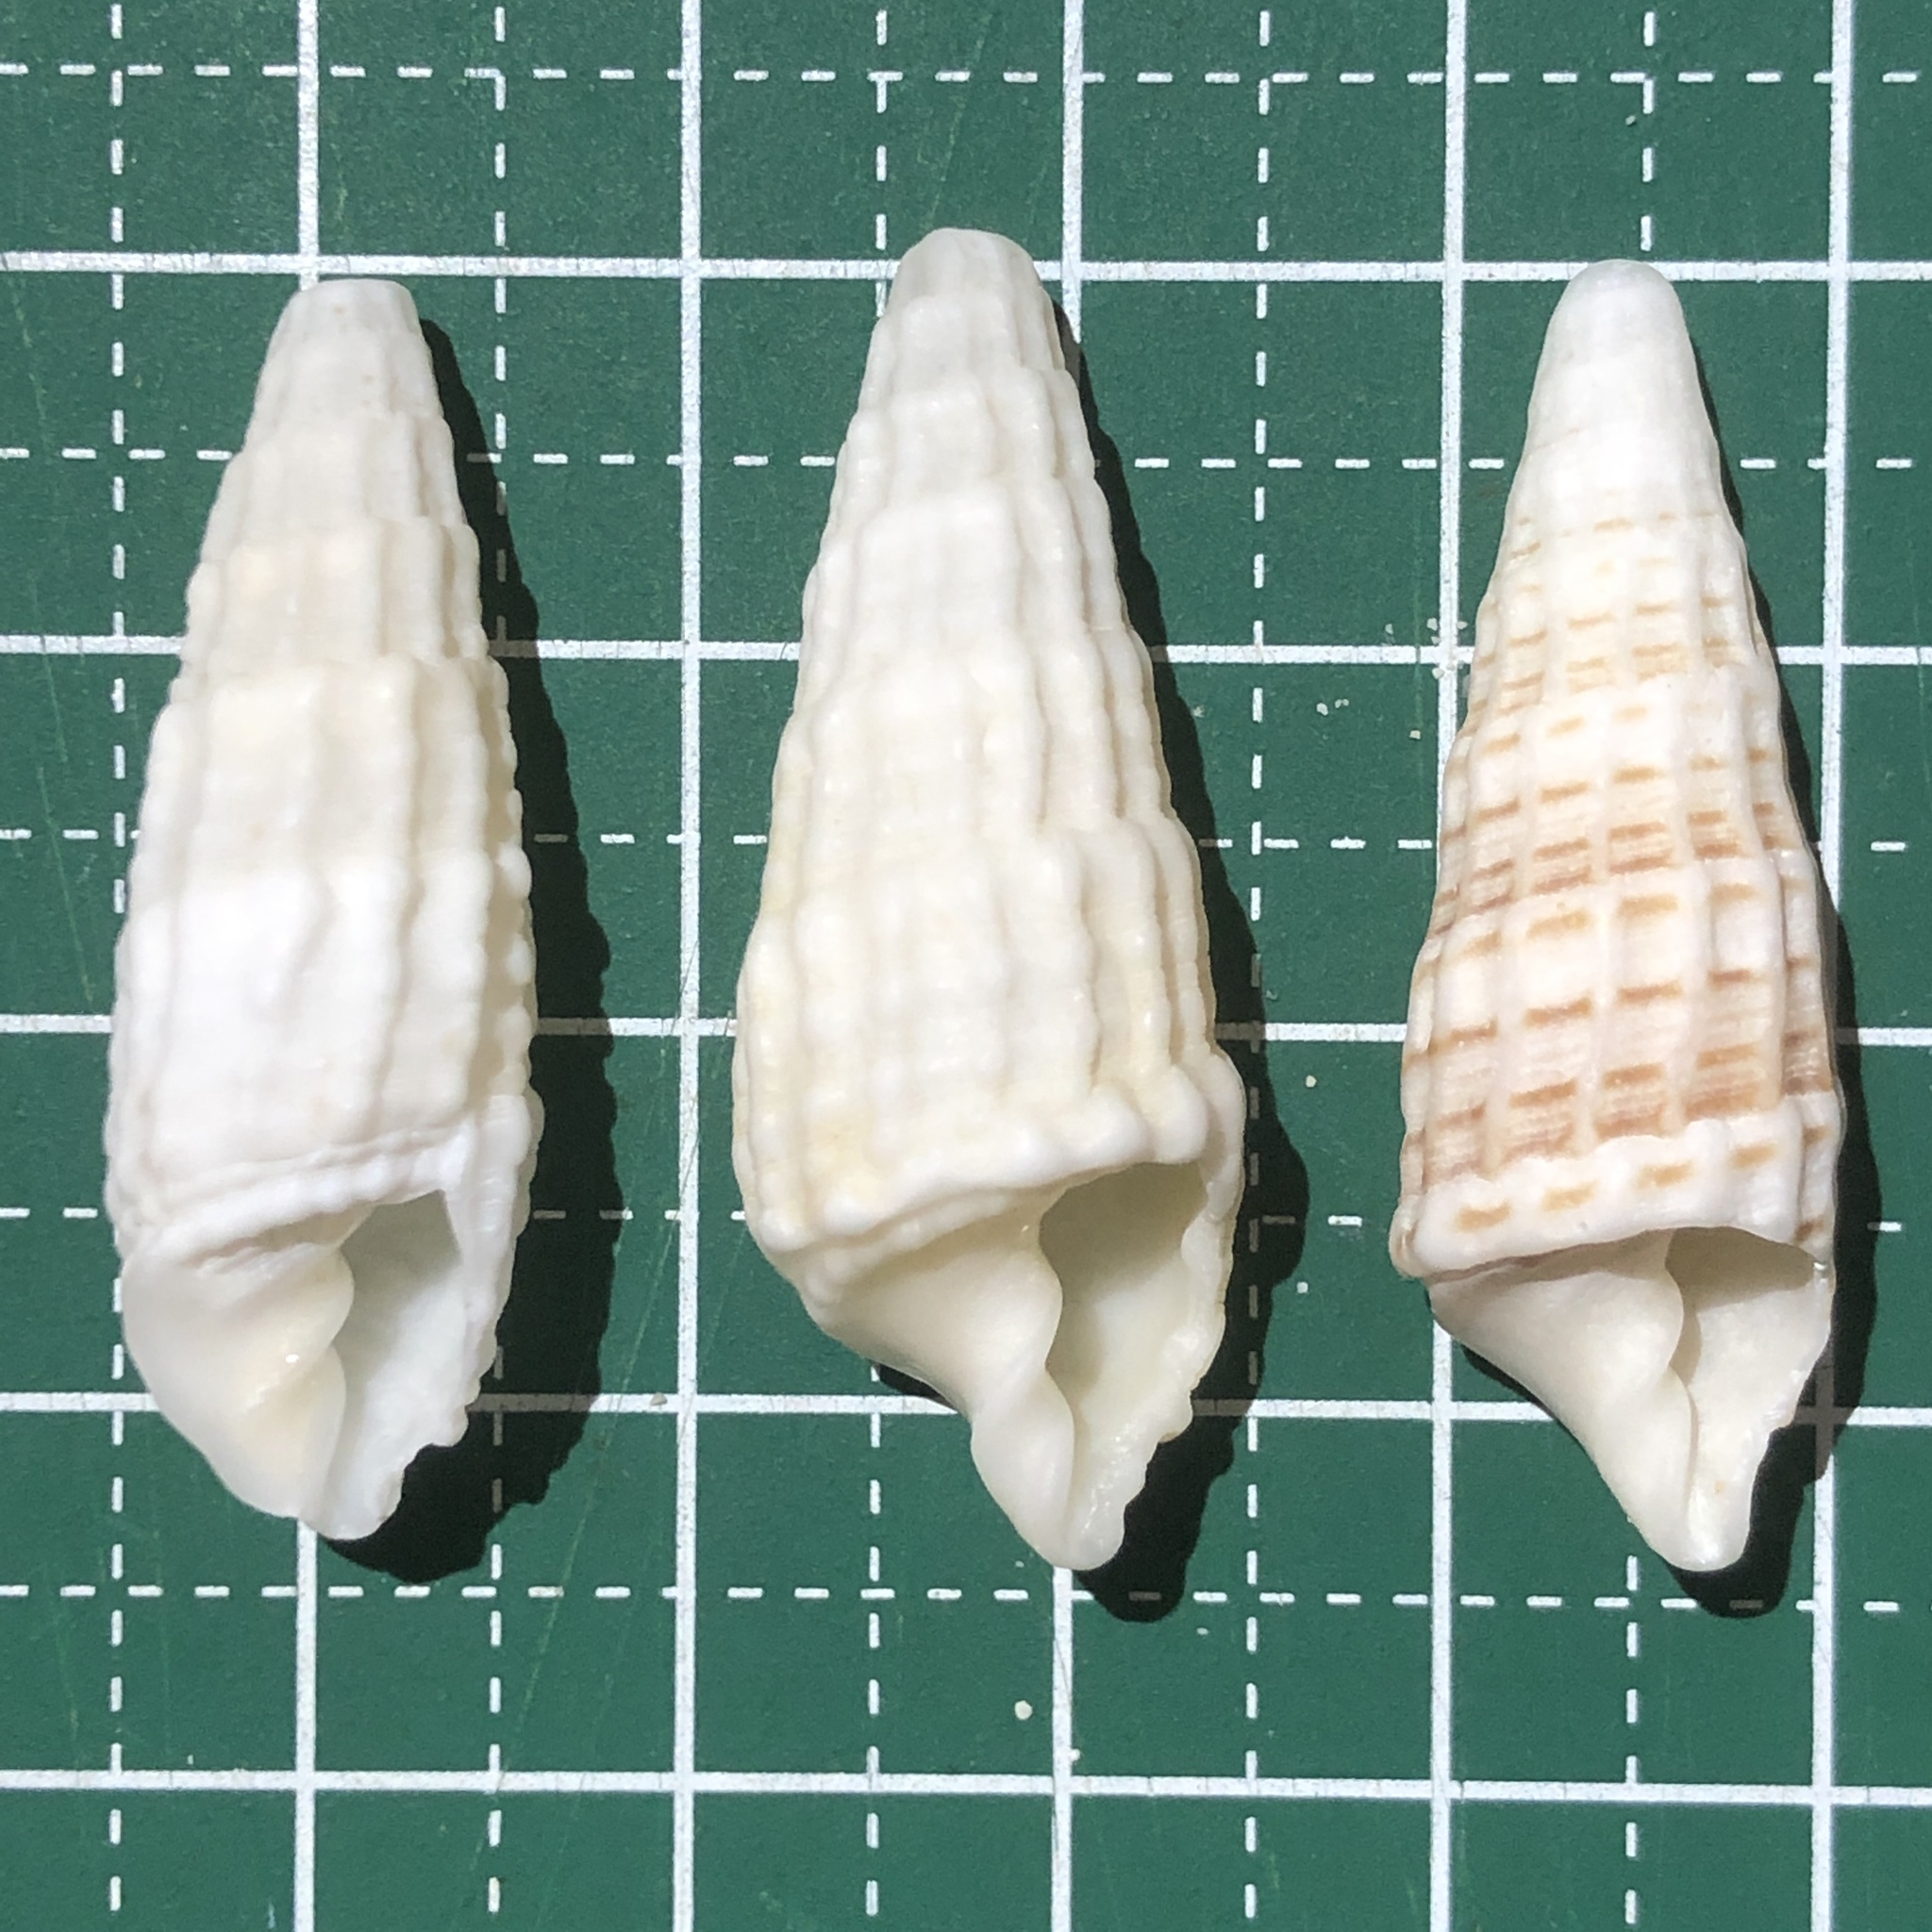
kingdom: Animalia
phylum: Mollusca
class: Gastropoda
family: Cerithiidae
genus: Rhinoclavis
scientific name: Rhinoclavis aspera
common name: Rough horn
